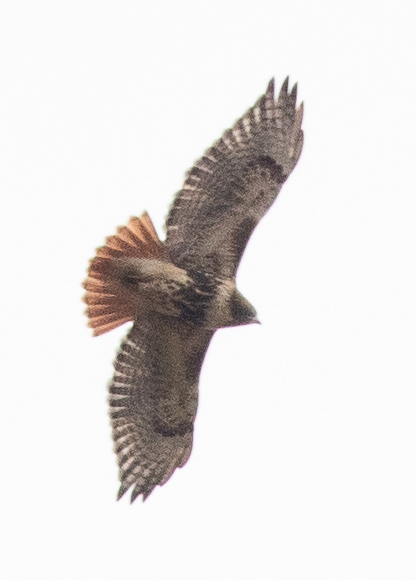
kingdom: Animalia
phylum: Chordata
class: Aves
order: Accipitriformes
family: Accipitridae
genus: Buteo
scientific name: Buteo jamaicensis
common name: Red-tailed hawk
